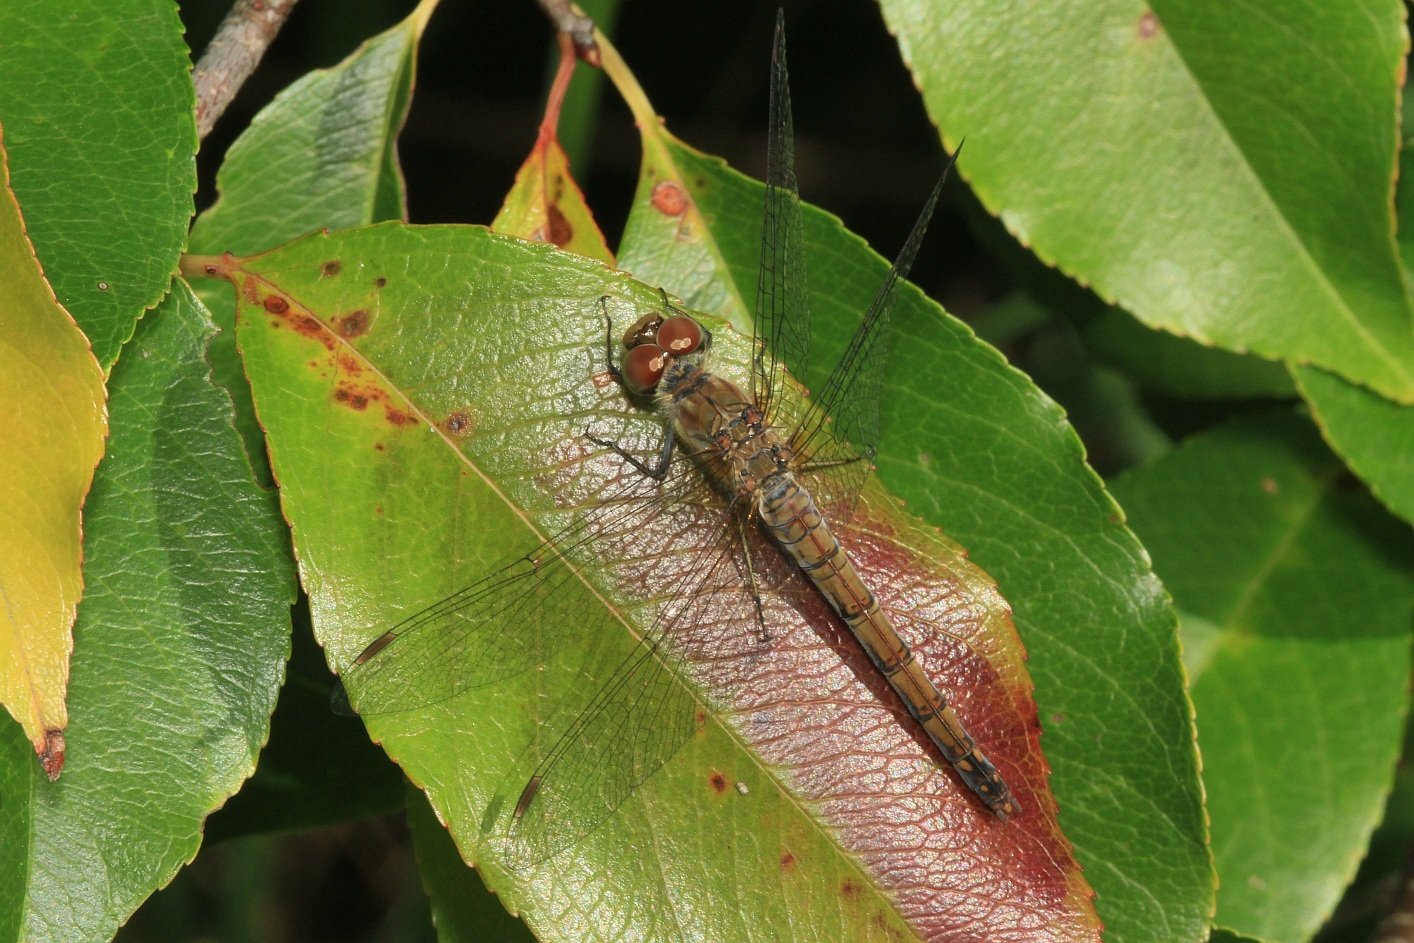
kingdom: Animalia
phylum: Arthropoda
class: Insecta
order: Odonata
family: Libellulidae
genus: Sympetrum
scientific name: Sympetrum striolatum
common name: Common darter
